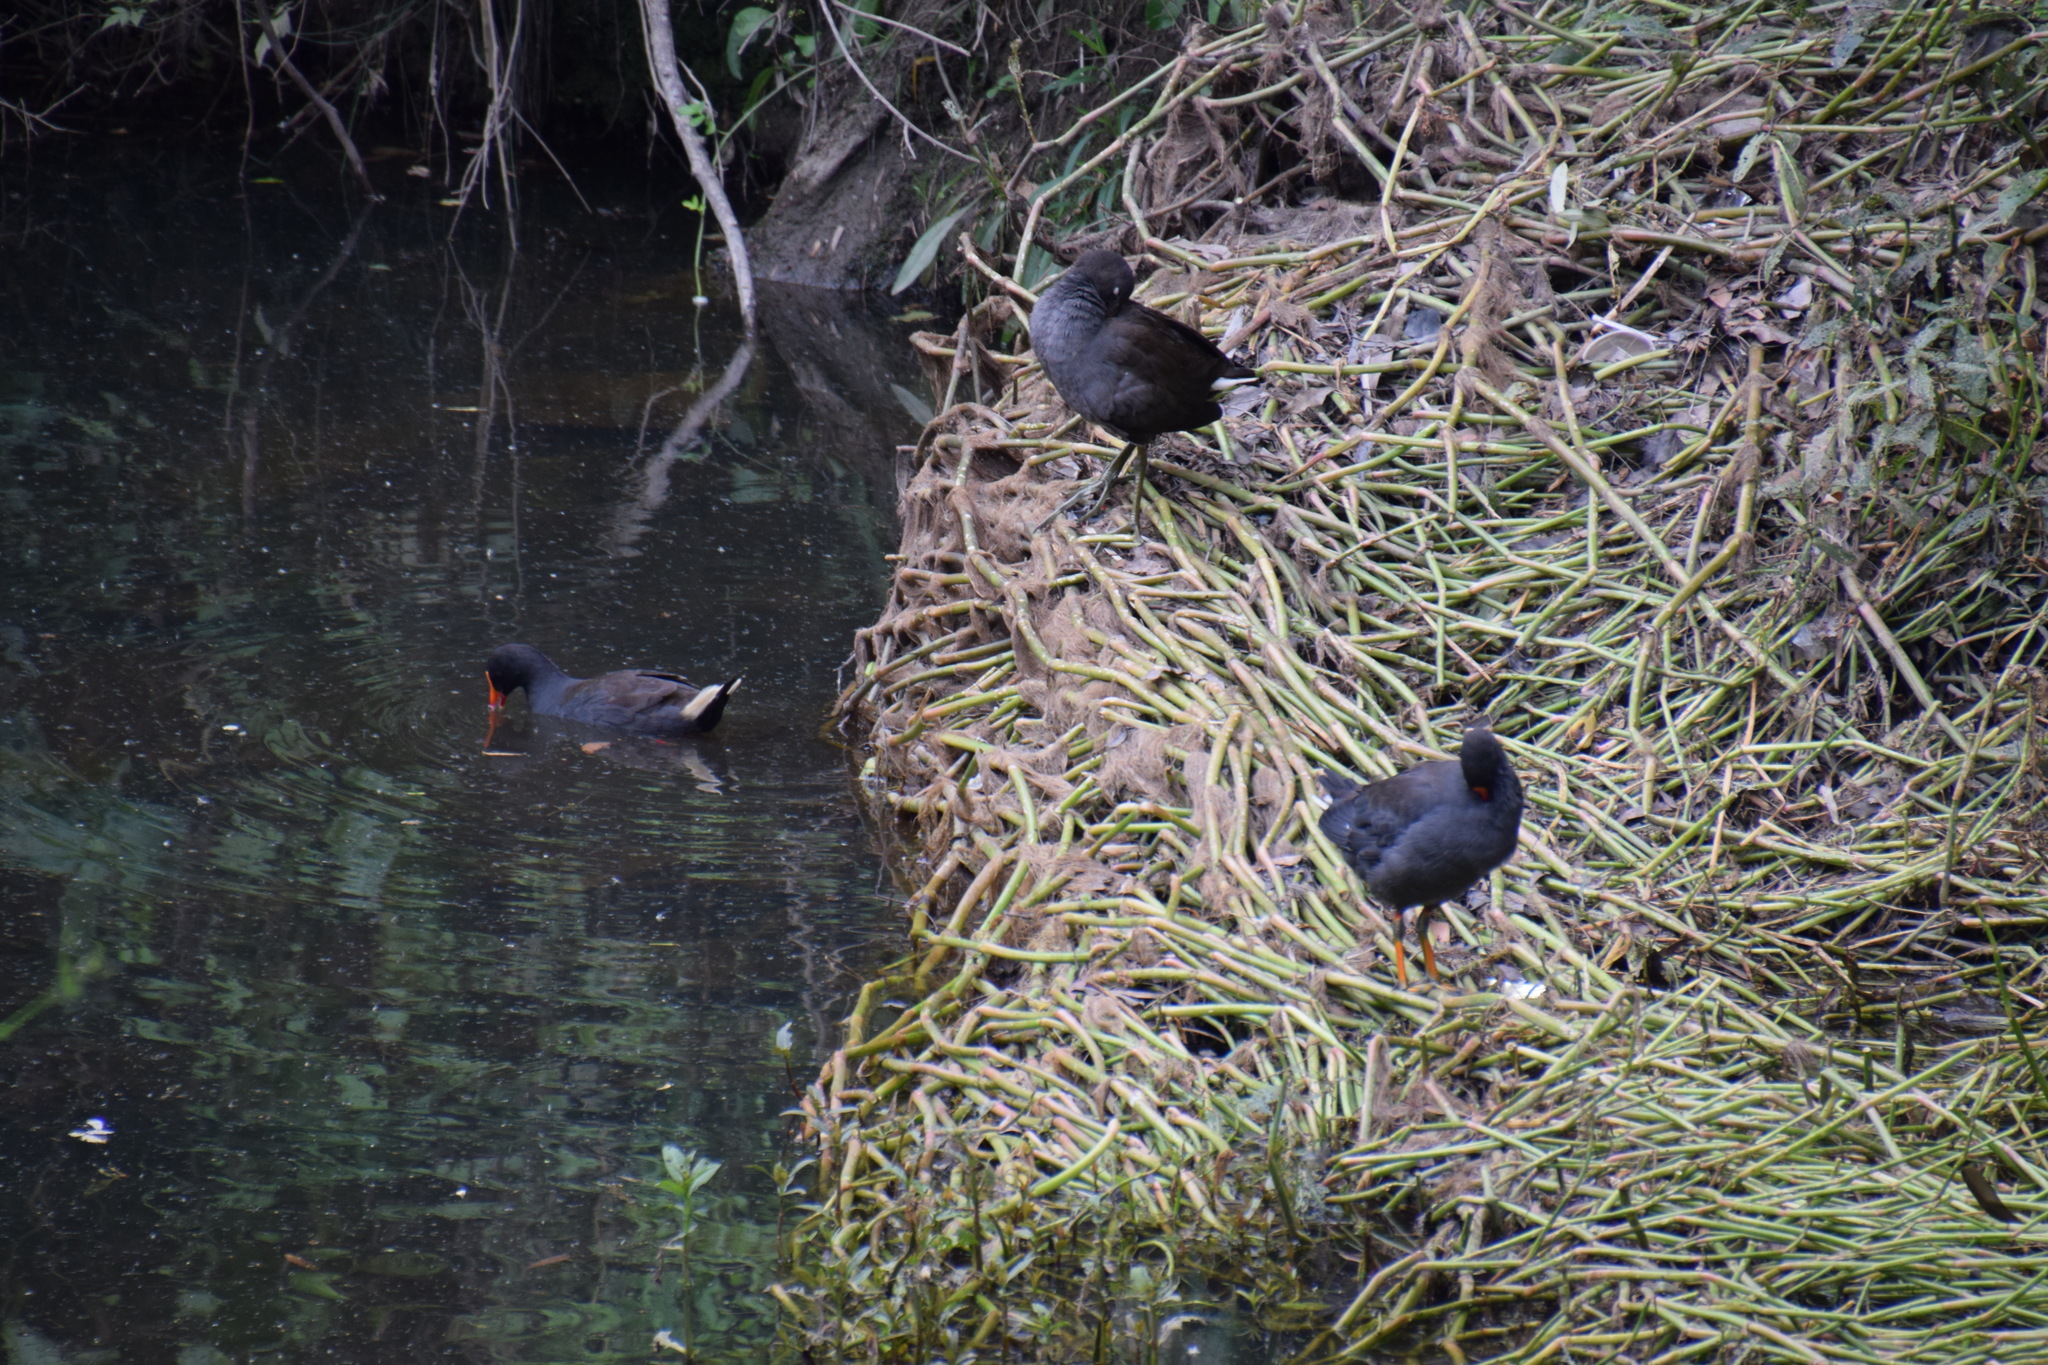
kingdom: Animalia
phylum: Chordata
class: Aves
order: Gruiformes
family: Rallidae
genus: Gallinula
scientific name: Gallinula tenebrosa
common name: Dusky moorhen
